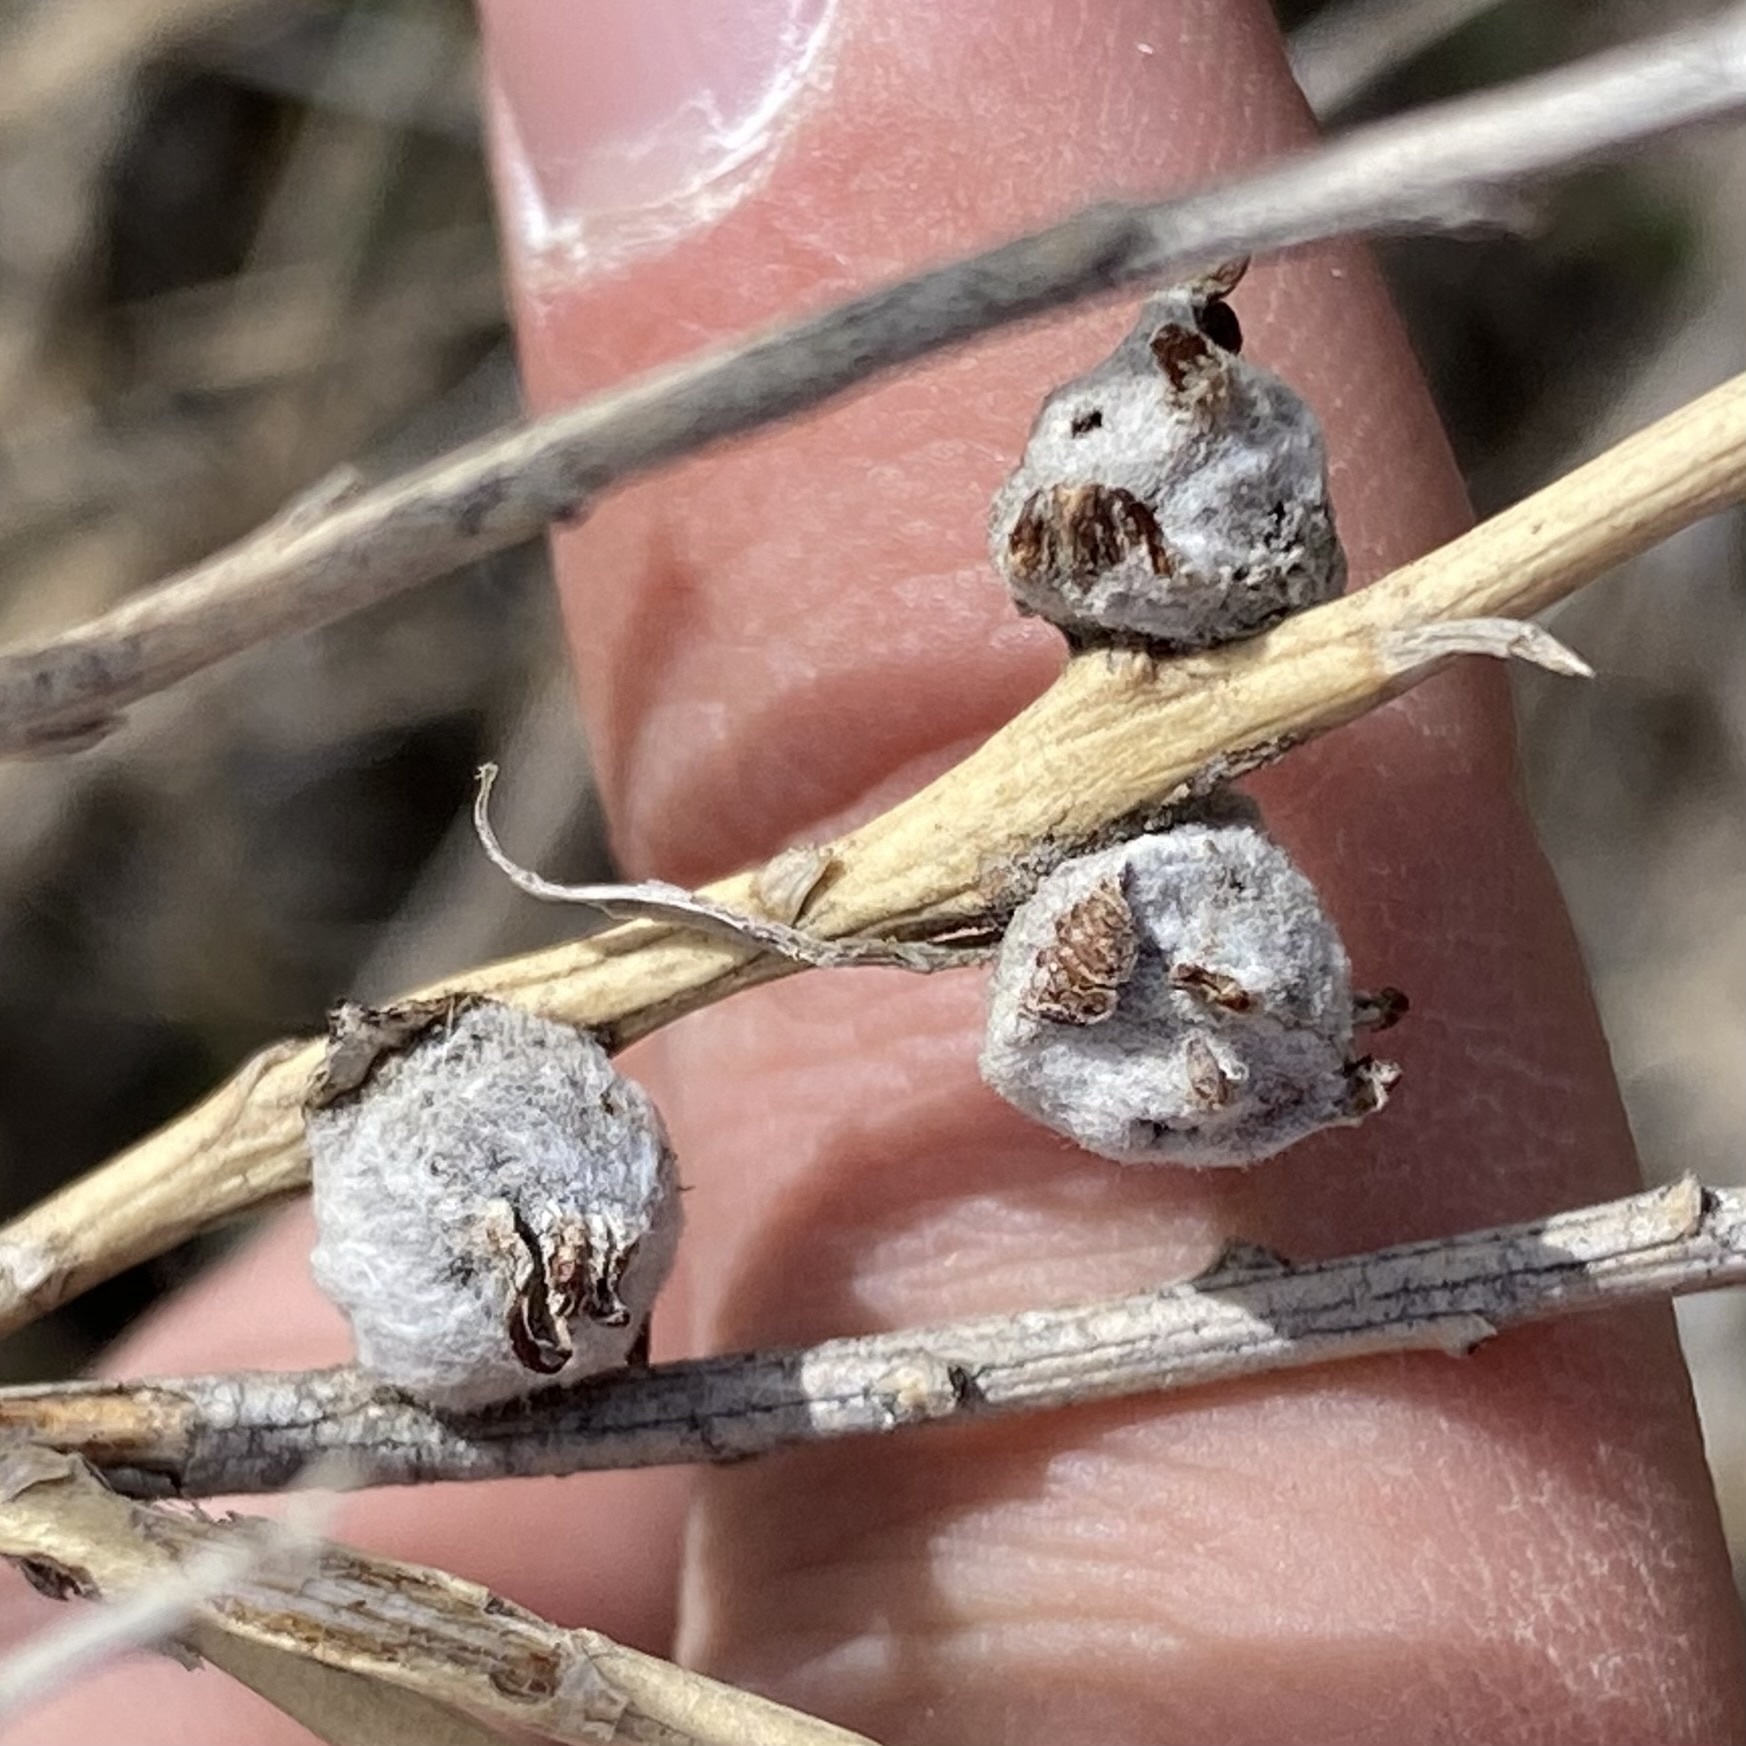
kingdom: Animalia
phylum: Arthropoda
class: Insecta
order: Diptera
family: Tephritidae
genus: Aciurina
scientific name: Aciurina bigeloviae
